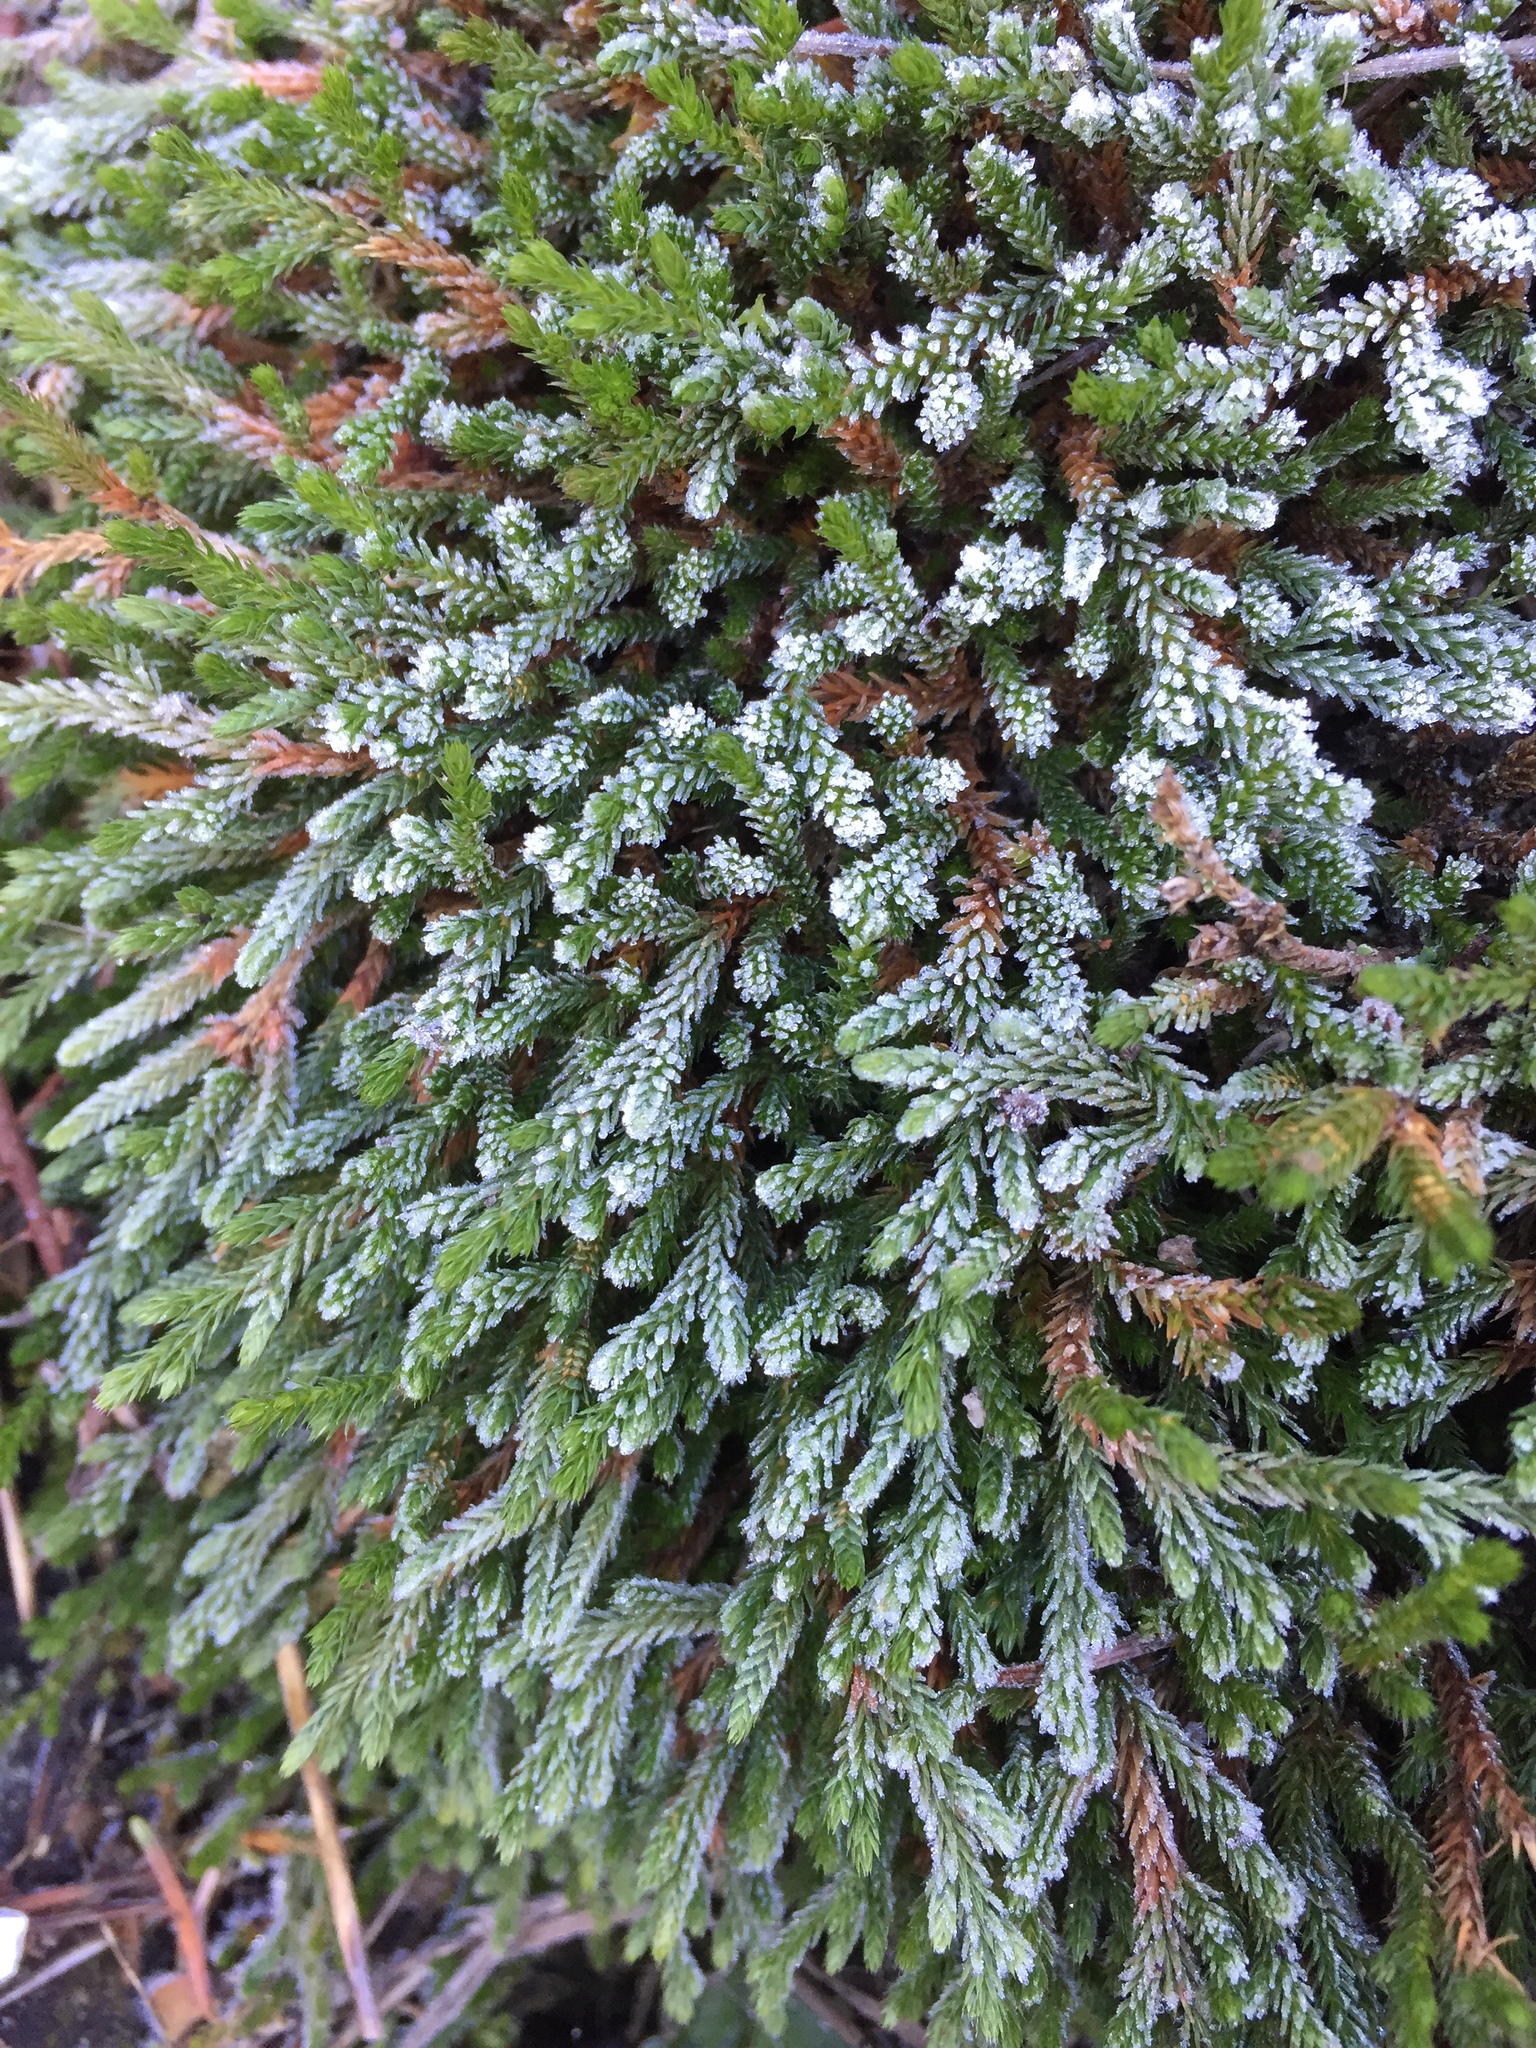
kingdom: Plantae
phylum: Tracheophyta
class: Lycopodiopsida
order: Selaginellales
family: Selaginellaceae
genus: Selaginella
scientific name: Selaginella wallacei
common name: Wallace's selaginella
